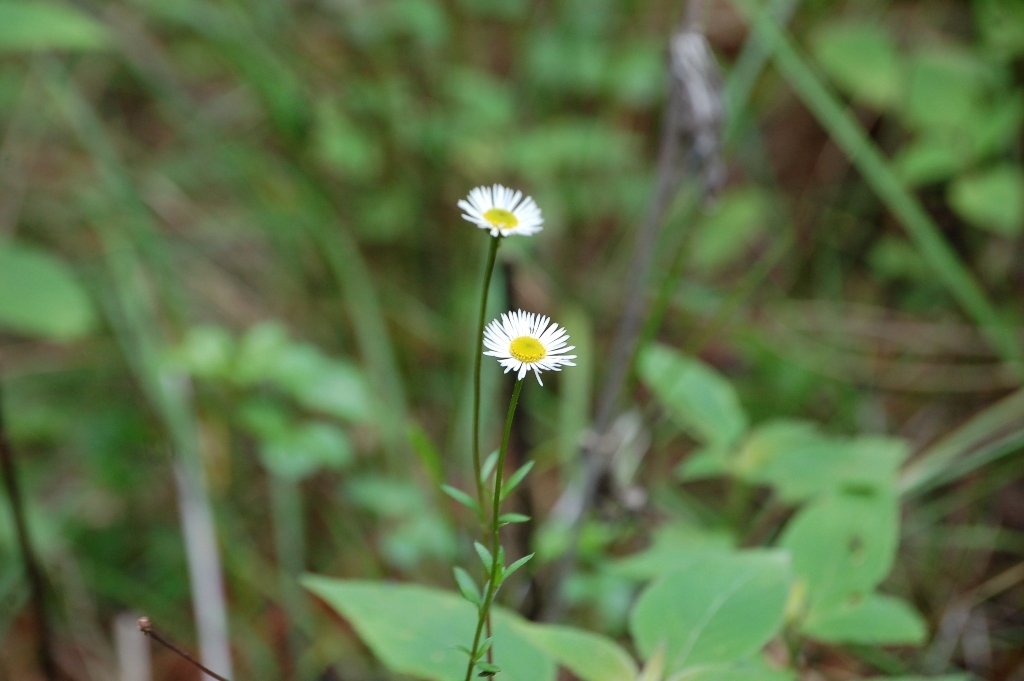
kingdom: Plantae
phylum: Tracheophyta
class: Magnoliopsida
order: Asterales
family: Asteraceae
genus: Erigeron
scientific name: Erigeron karvinskianus
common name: Mexican fleabane
